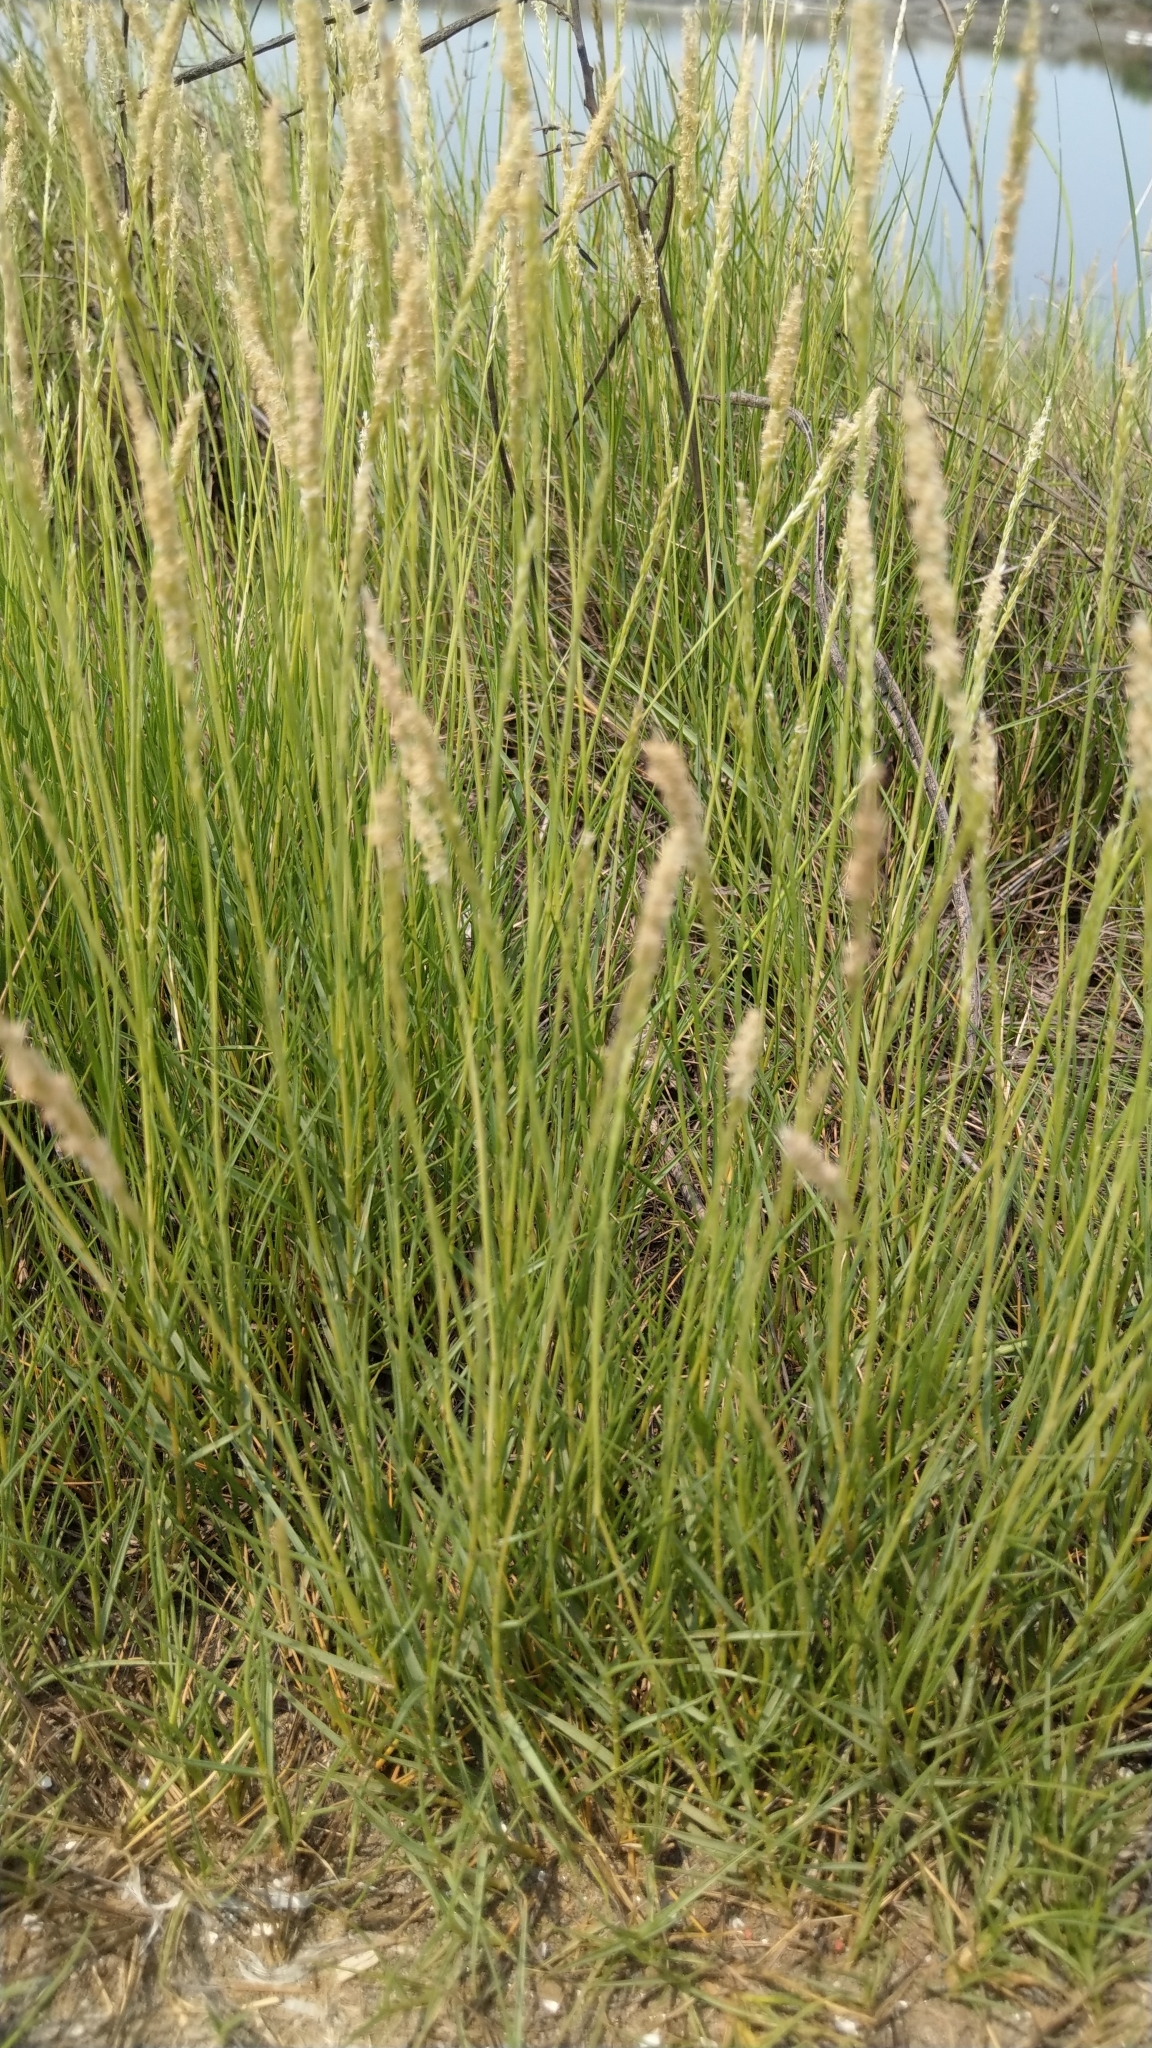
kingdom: Plantae
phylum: Tracheophyta
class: Liliopsida
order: Poales
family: Poaceae
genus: Sporobolus
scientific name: Sporobolus virginicus
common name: Beach dropseed
